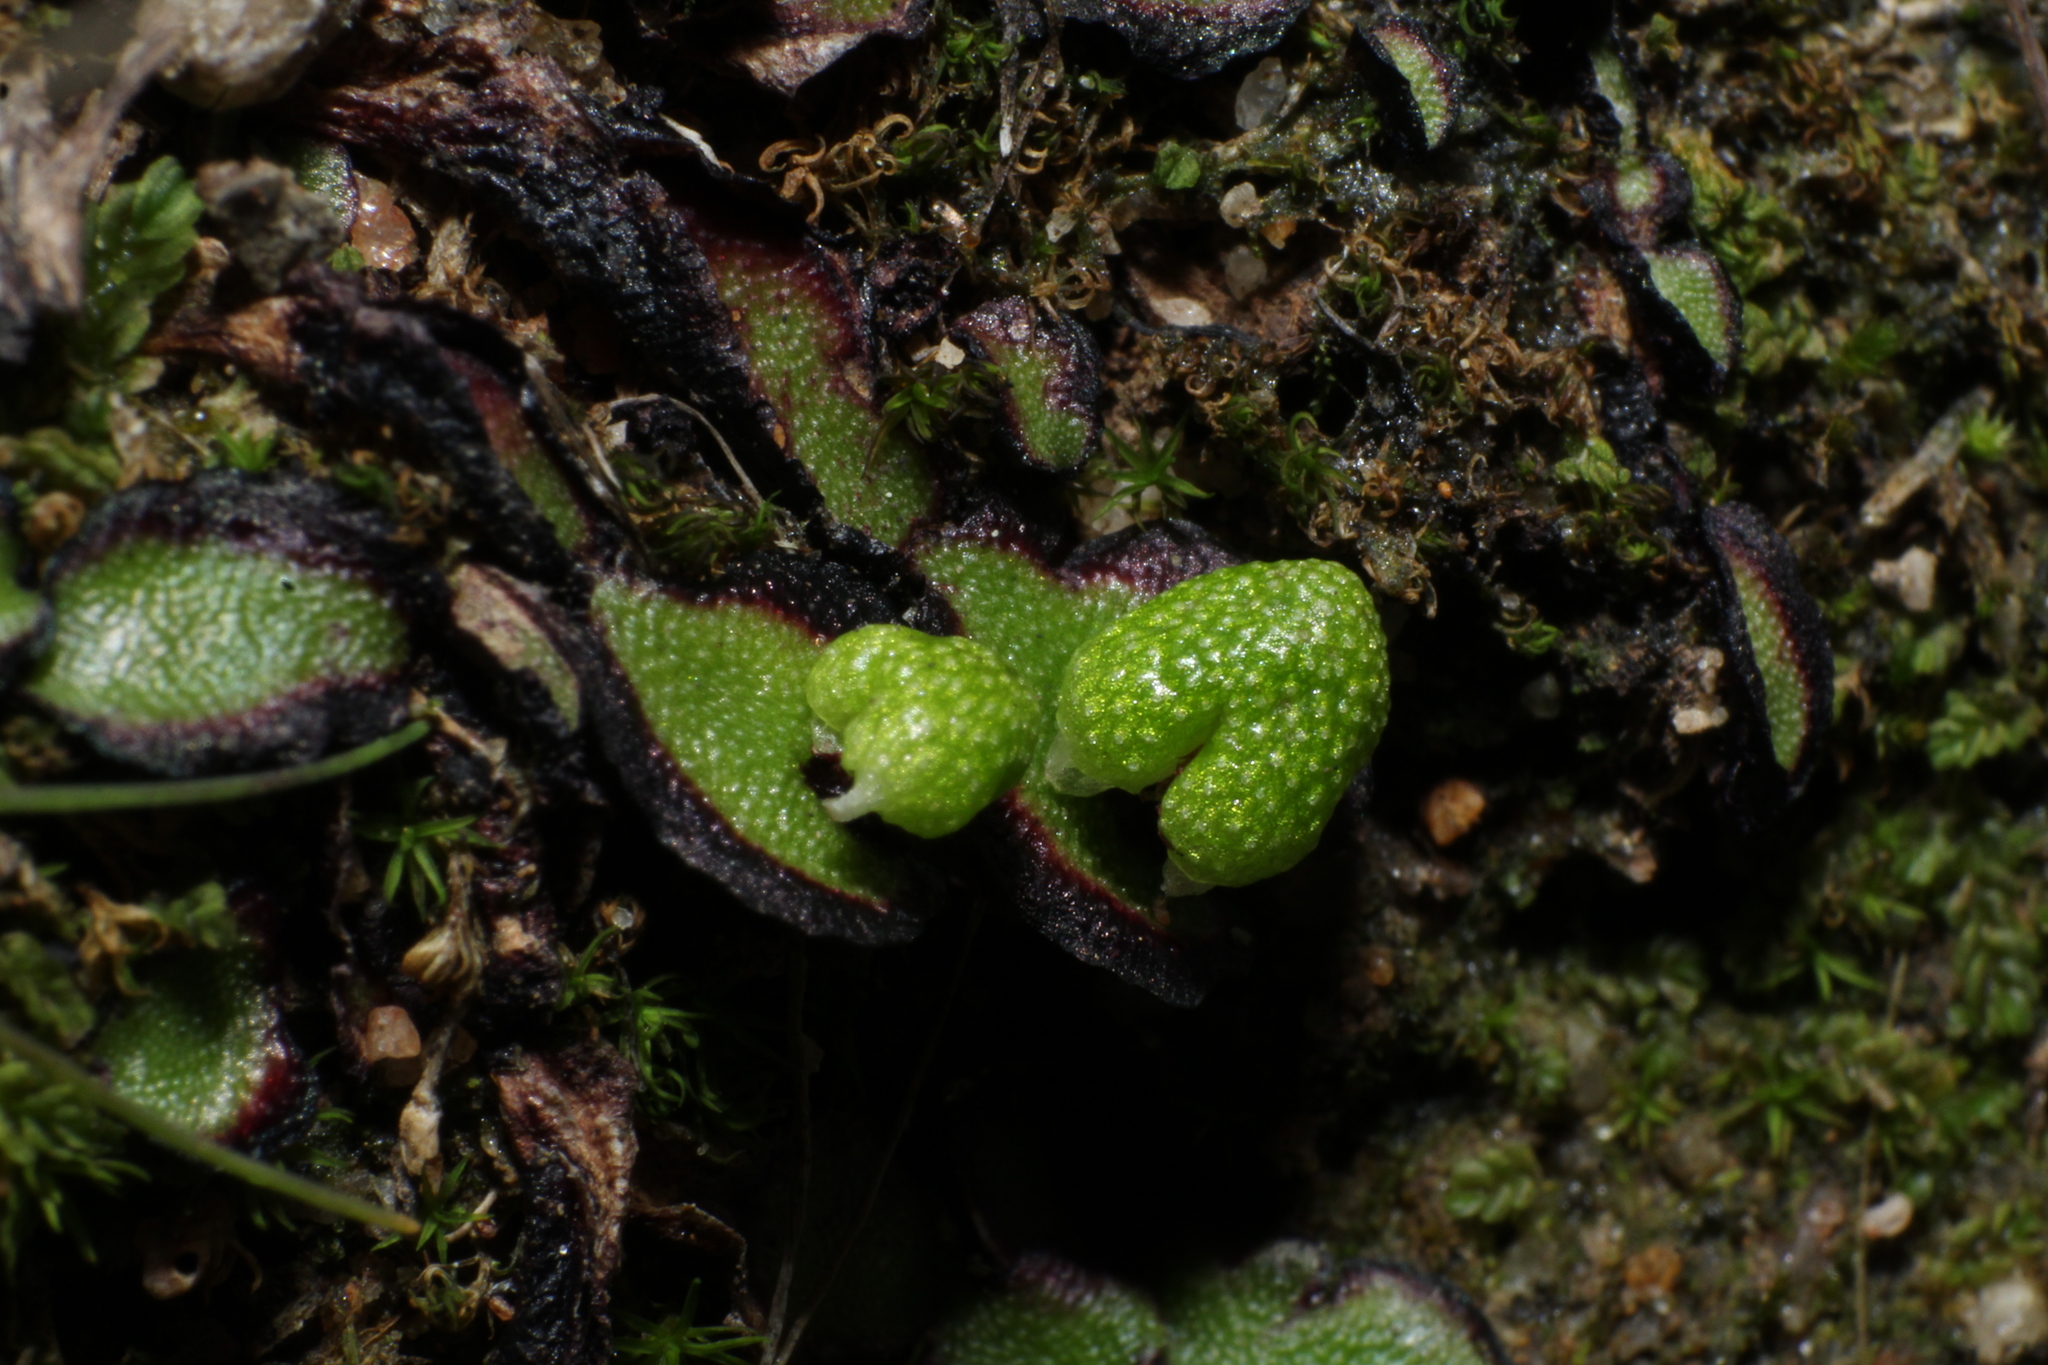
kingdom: Plantae
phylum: Marchantiophyta
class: Marchantiopsida
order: Marchantiales
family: Aytoniaceae
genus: Asterella
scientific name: Asterella drummondii
